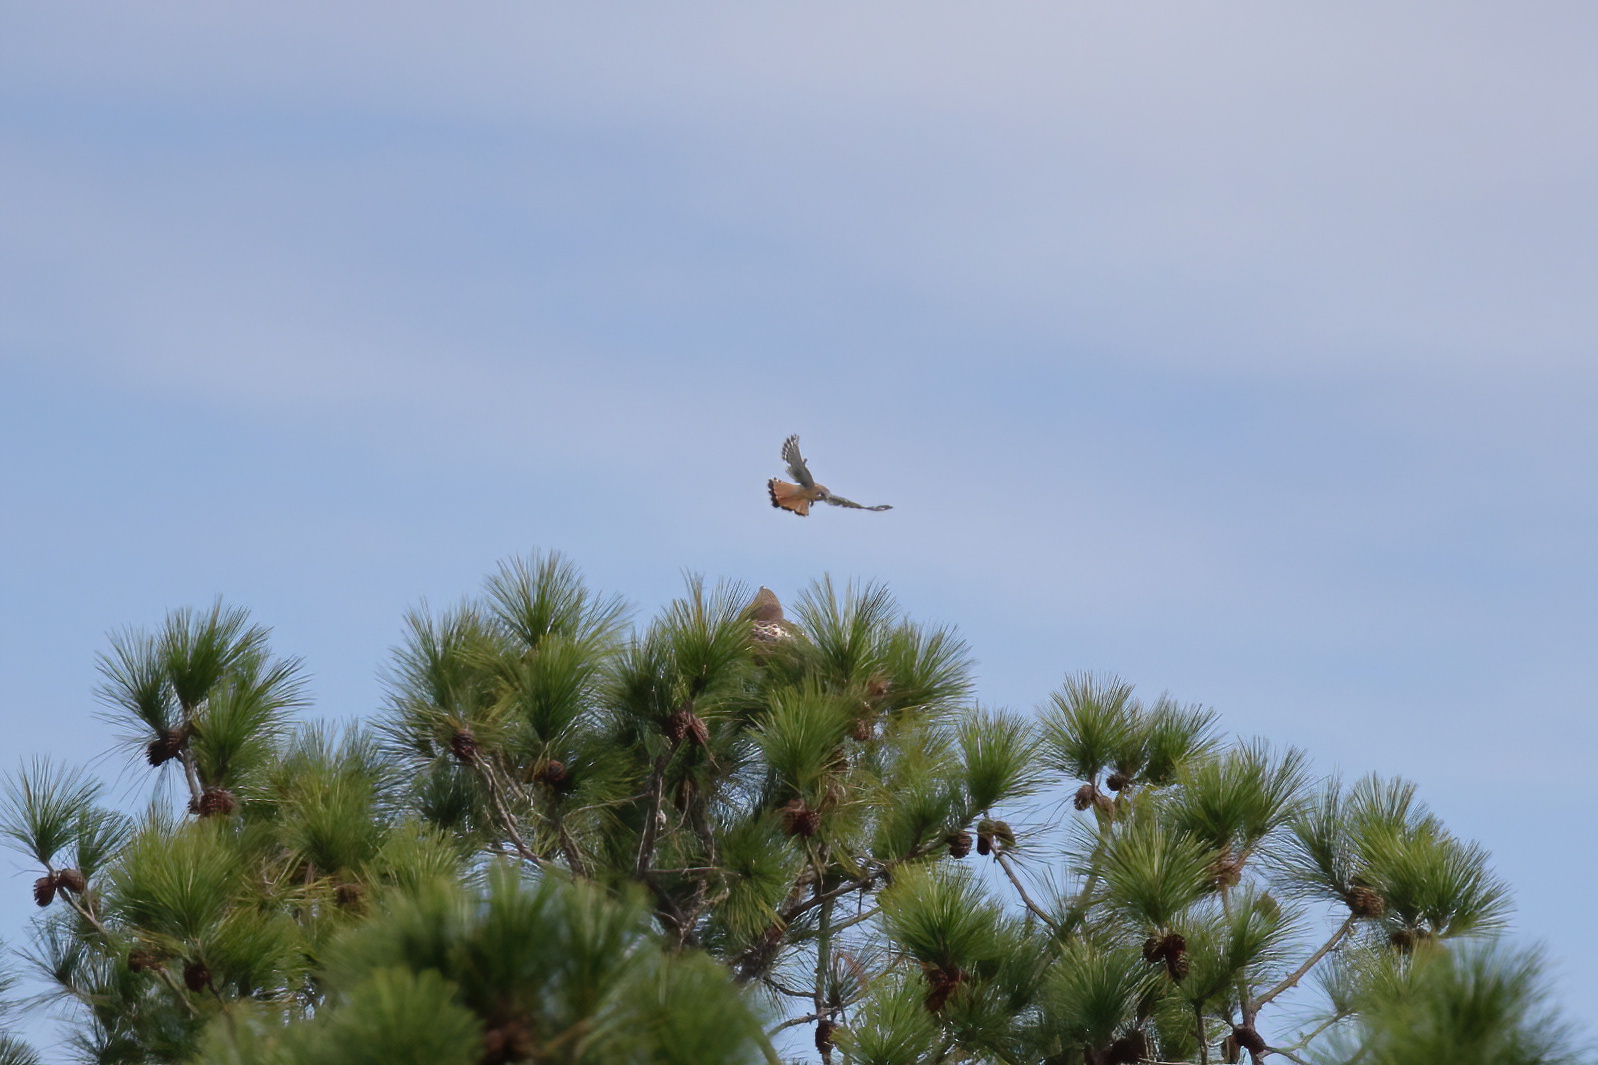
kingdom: Animalia
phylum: Chordata
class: Aves
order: Falconiformes
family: Falconidae
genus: Falco
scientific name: Falco sparverius
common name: American kestrel
